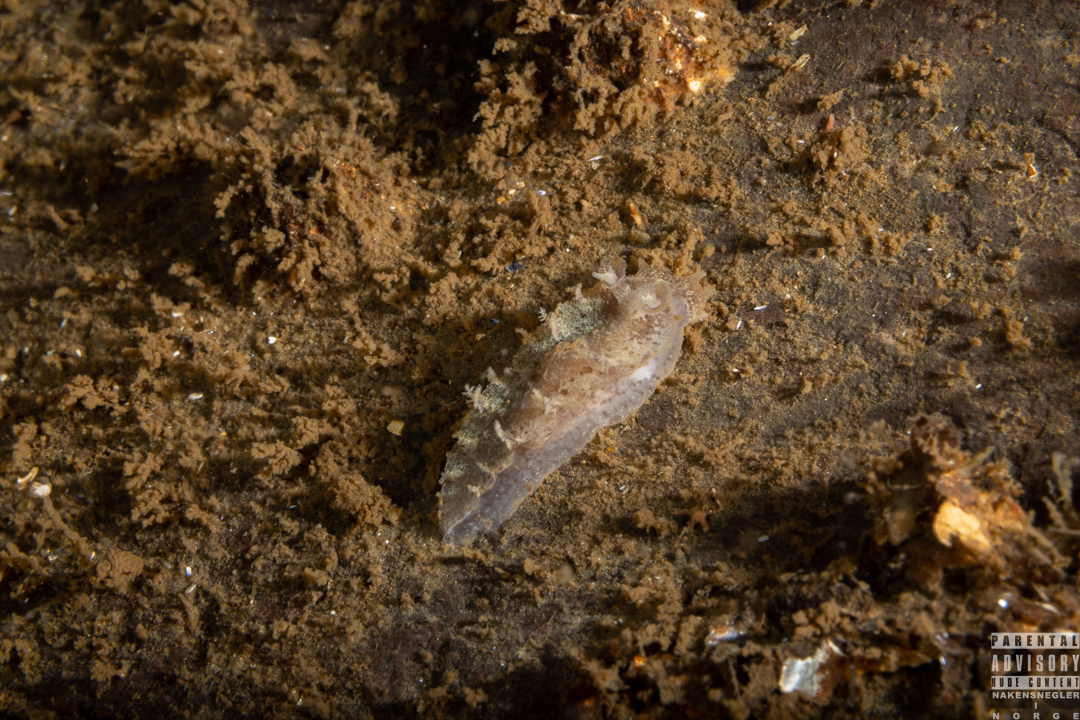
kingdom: Animalia
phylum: Mollusca
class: Gastropoda
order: Nudibranchia
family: Tritoniidae
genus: Duvaucelia
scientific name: Duvaucelia plebeia
